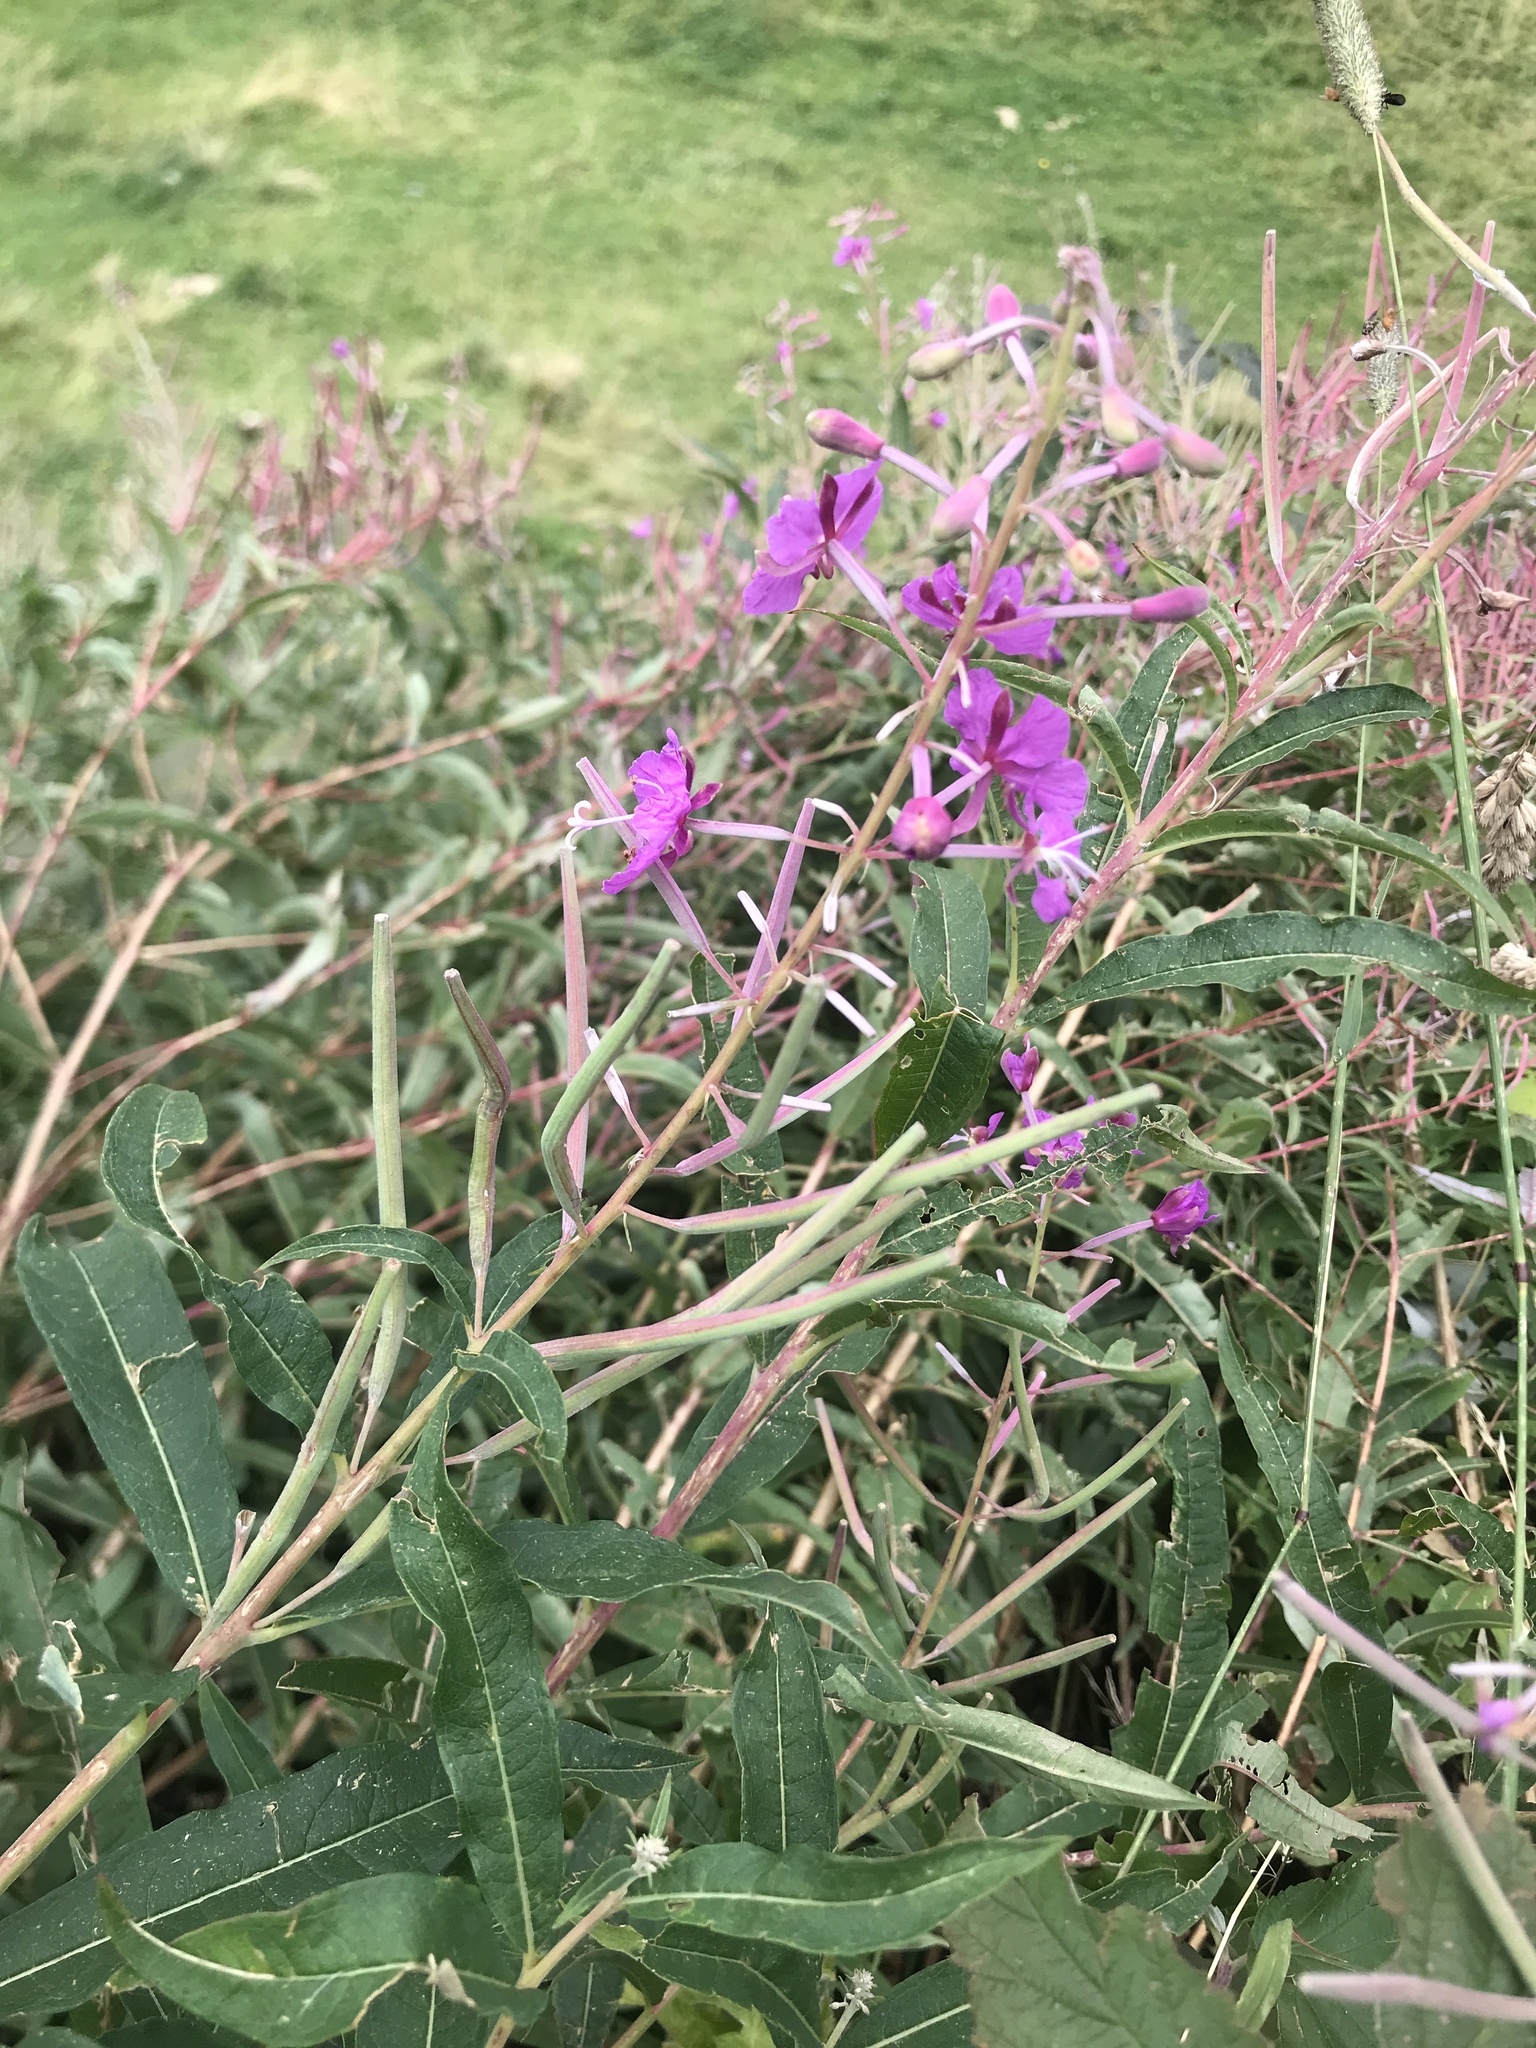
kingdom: Plantae
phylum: Tracheophyta
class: Magnoliopsida
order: Myrtales
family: Onagraceae
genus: Chamaenerion
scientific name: Chamaenerion angustifolium
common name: Fireweed
